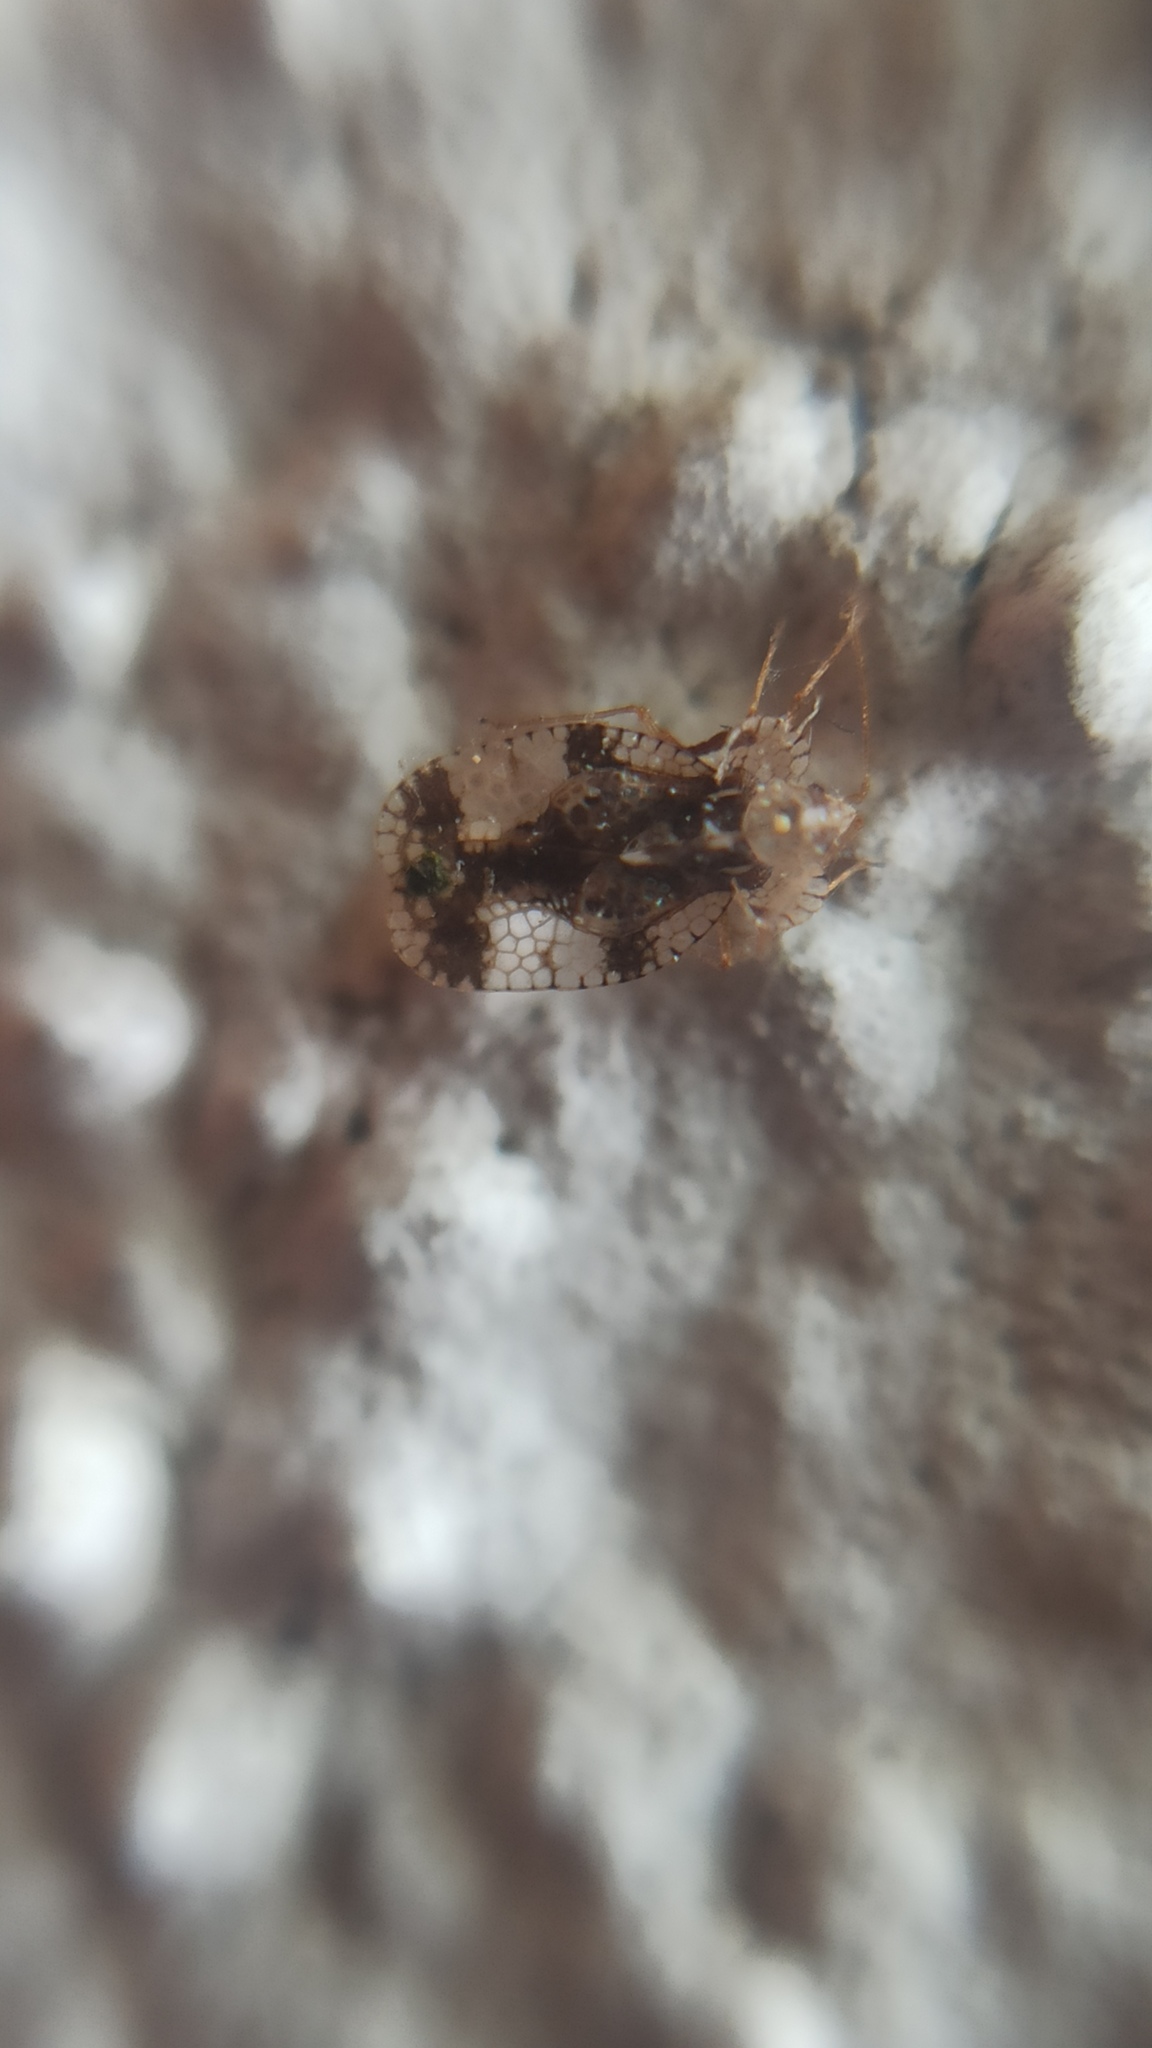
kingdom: Animalia
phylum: Arthropoda
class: Insecta
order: Hemiptera
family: Tingidae
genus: Stephanitis
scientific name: Stephanitis pyri
